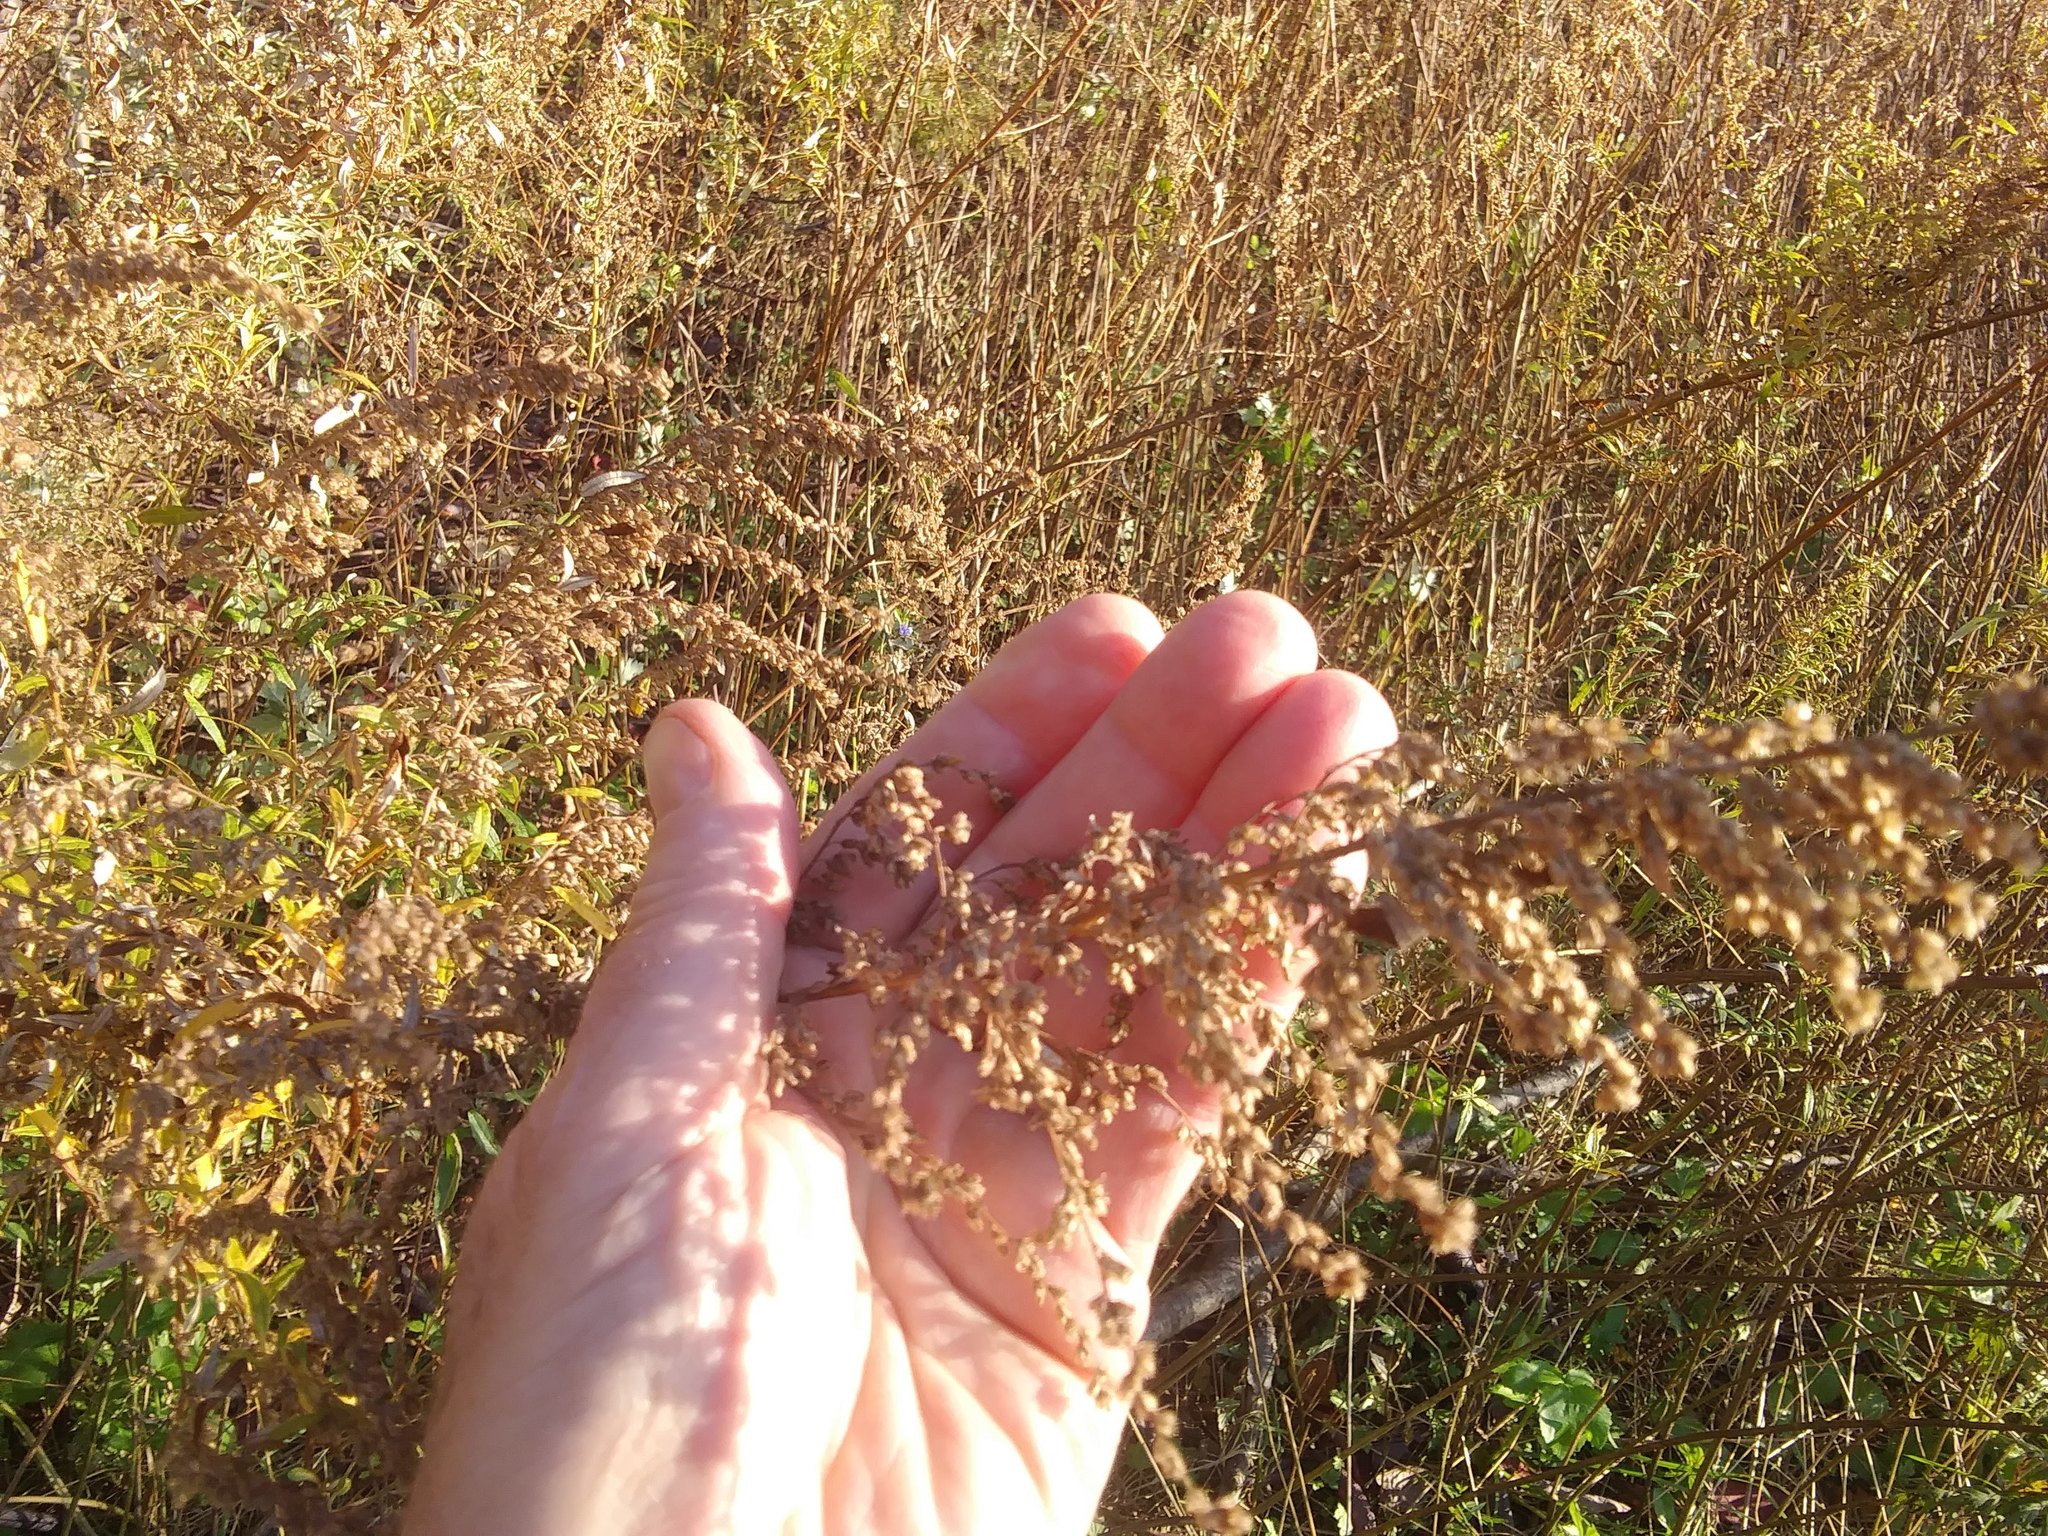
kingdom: Plantae
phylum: Tracheophyta
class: Magnoliopsida
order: Asterales
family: Asteraceae
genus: Artemisia
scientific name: Artemisia vulgaris
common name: Mugwort
